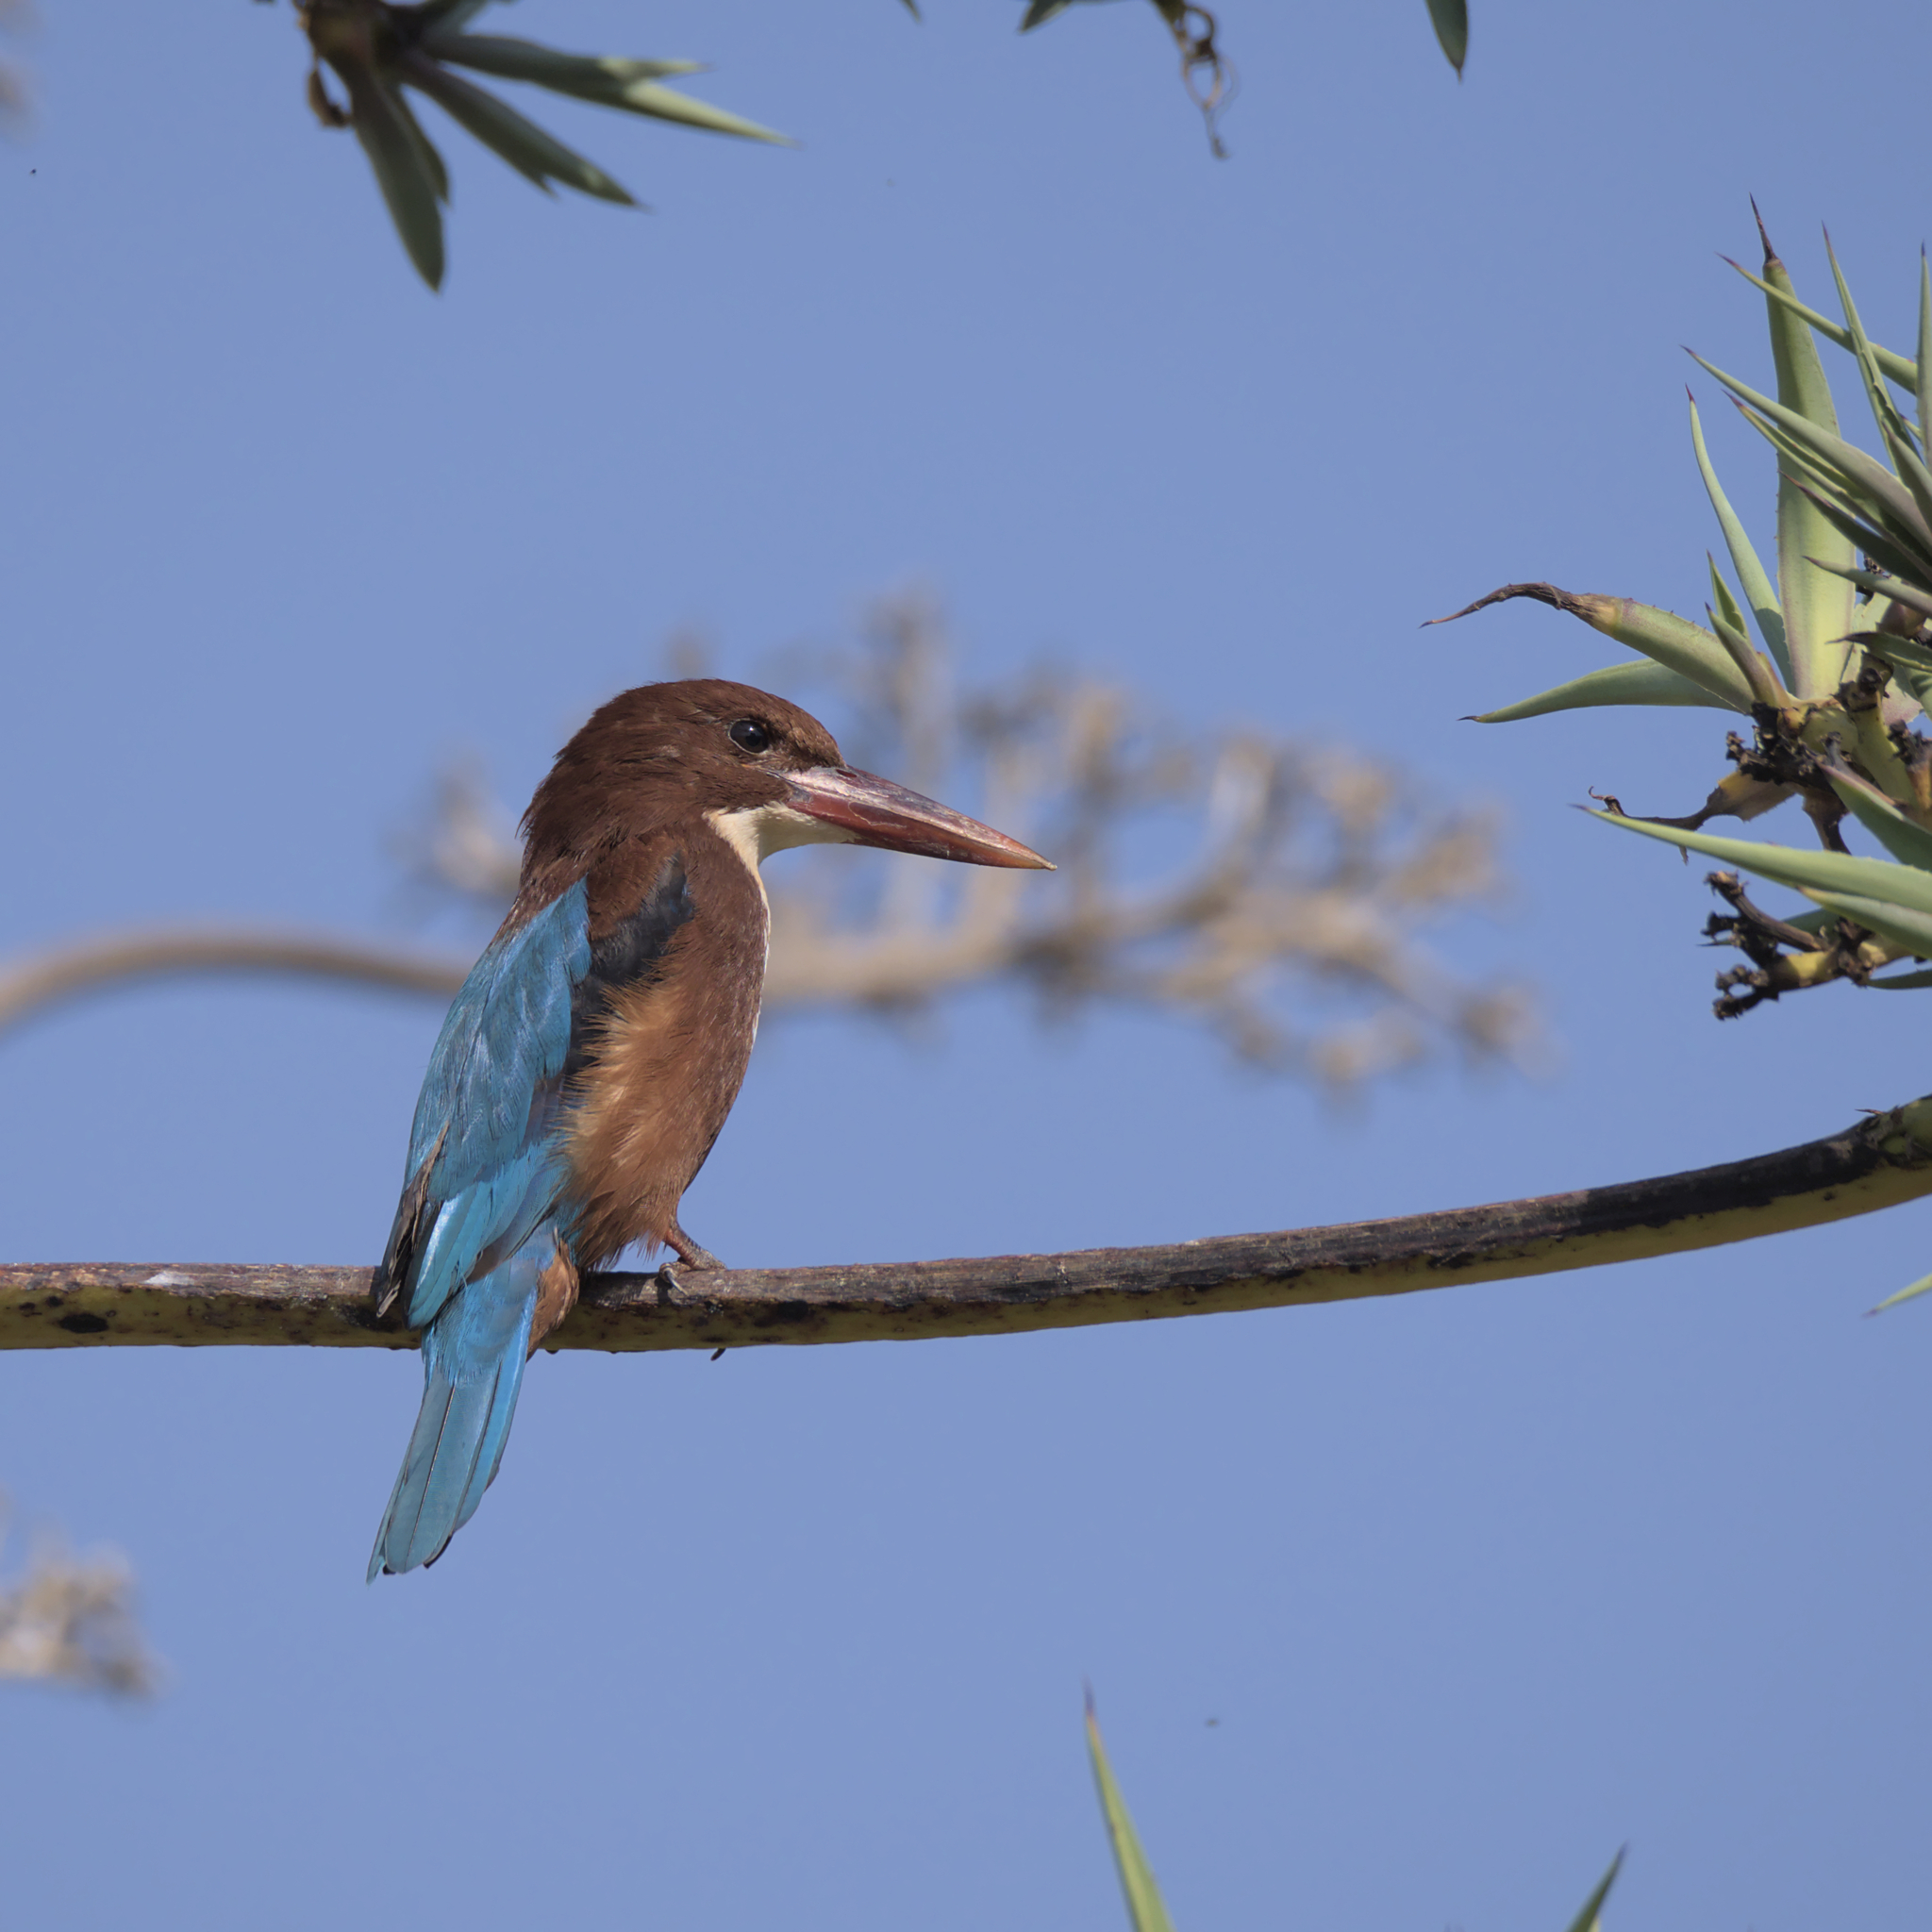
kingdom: Animalia
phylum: Chordata
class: Aves
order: Coraciiformes
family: Alcedinidae
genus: Halcyon
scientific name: Halcyon smyrnensis
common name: White-throated kingfisher
